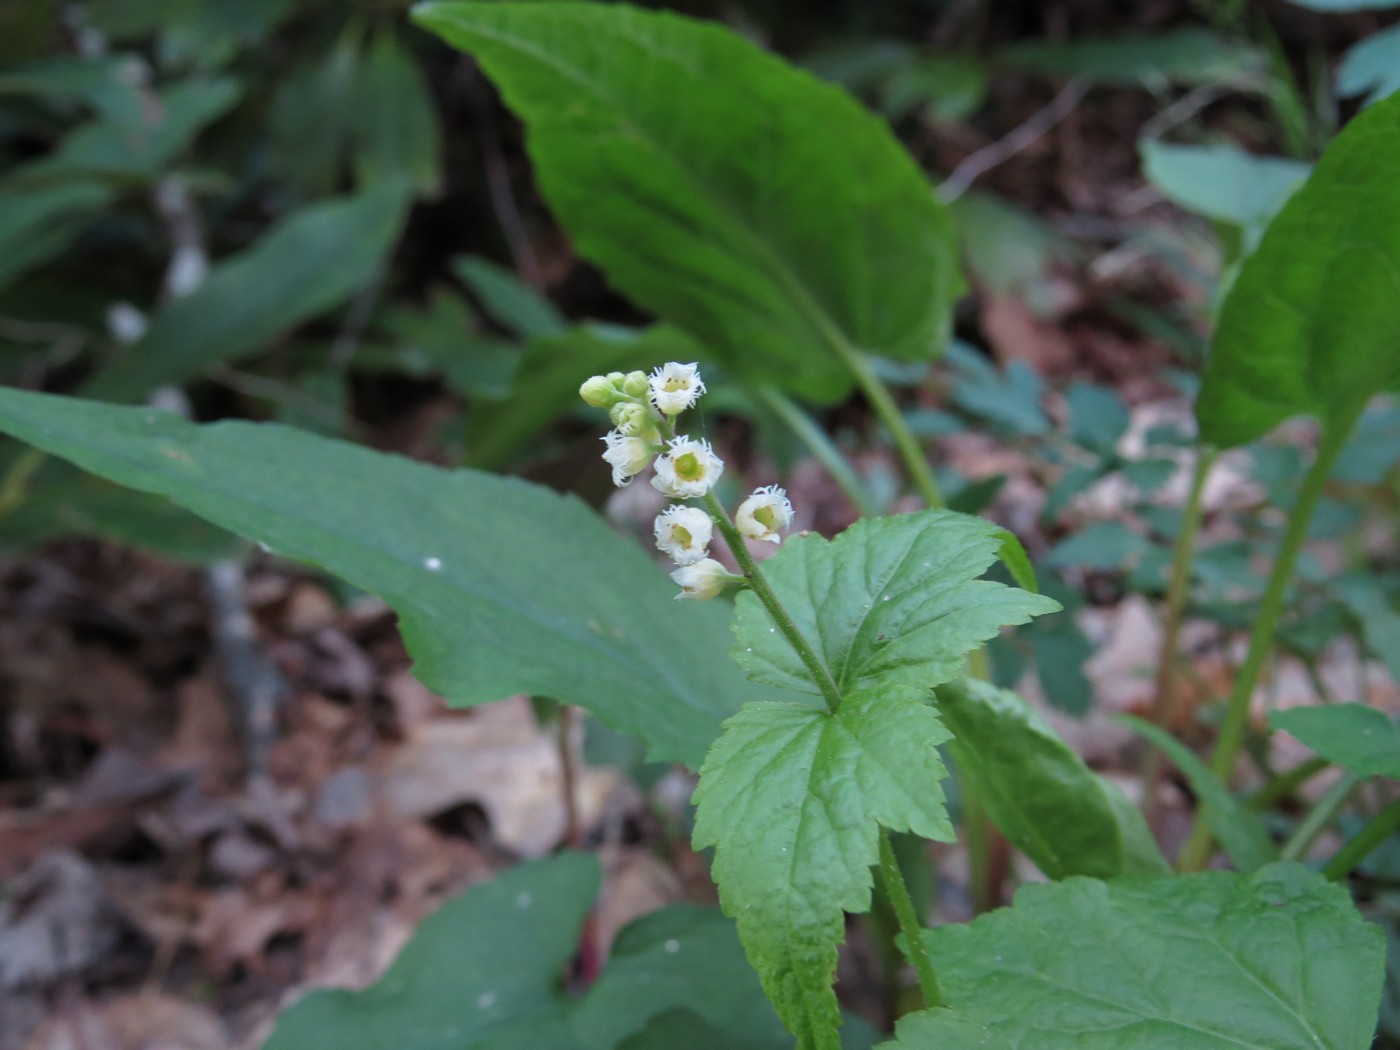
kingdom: Plantae
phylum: Tracheophyta
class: Magnoliopsida
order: Saxifragales
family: Saxifragaceae
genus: Mitella
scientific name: Mitella diphylla
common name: Coolwort
